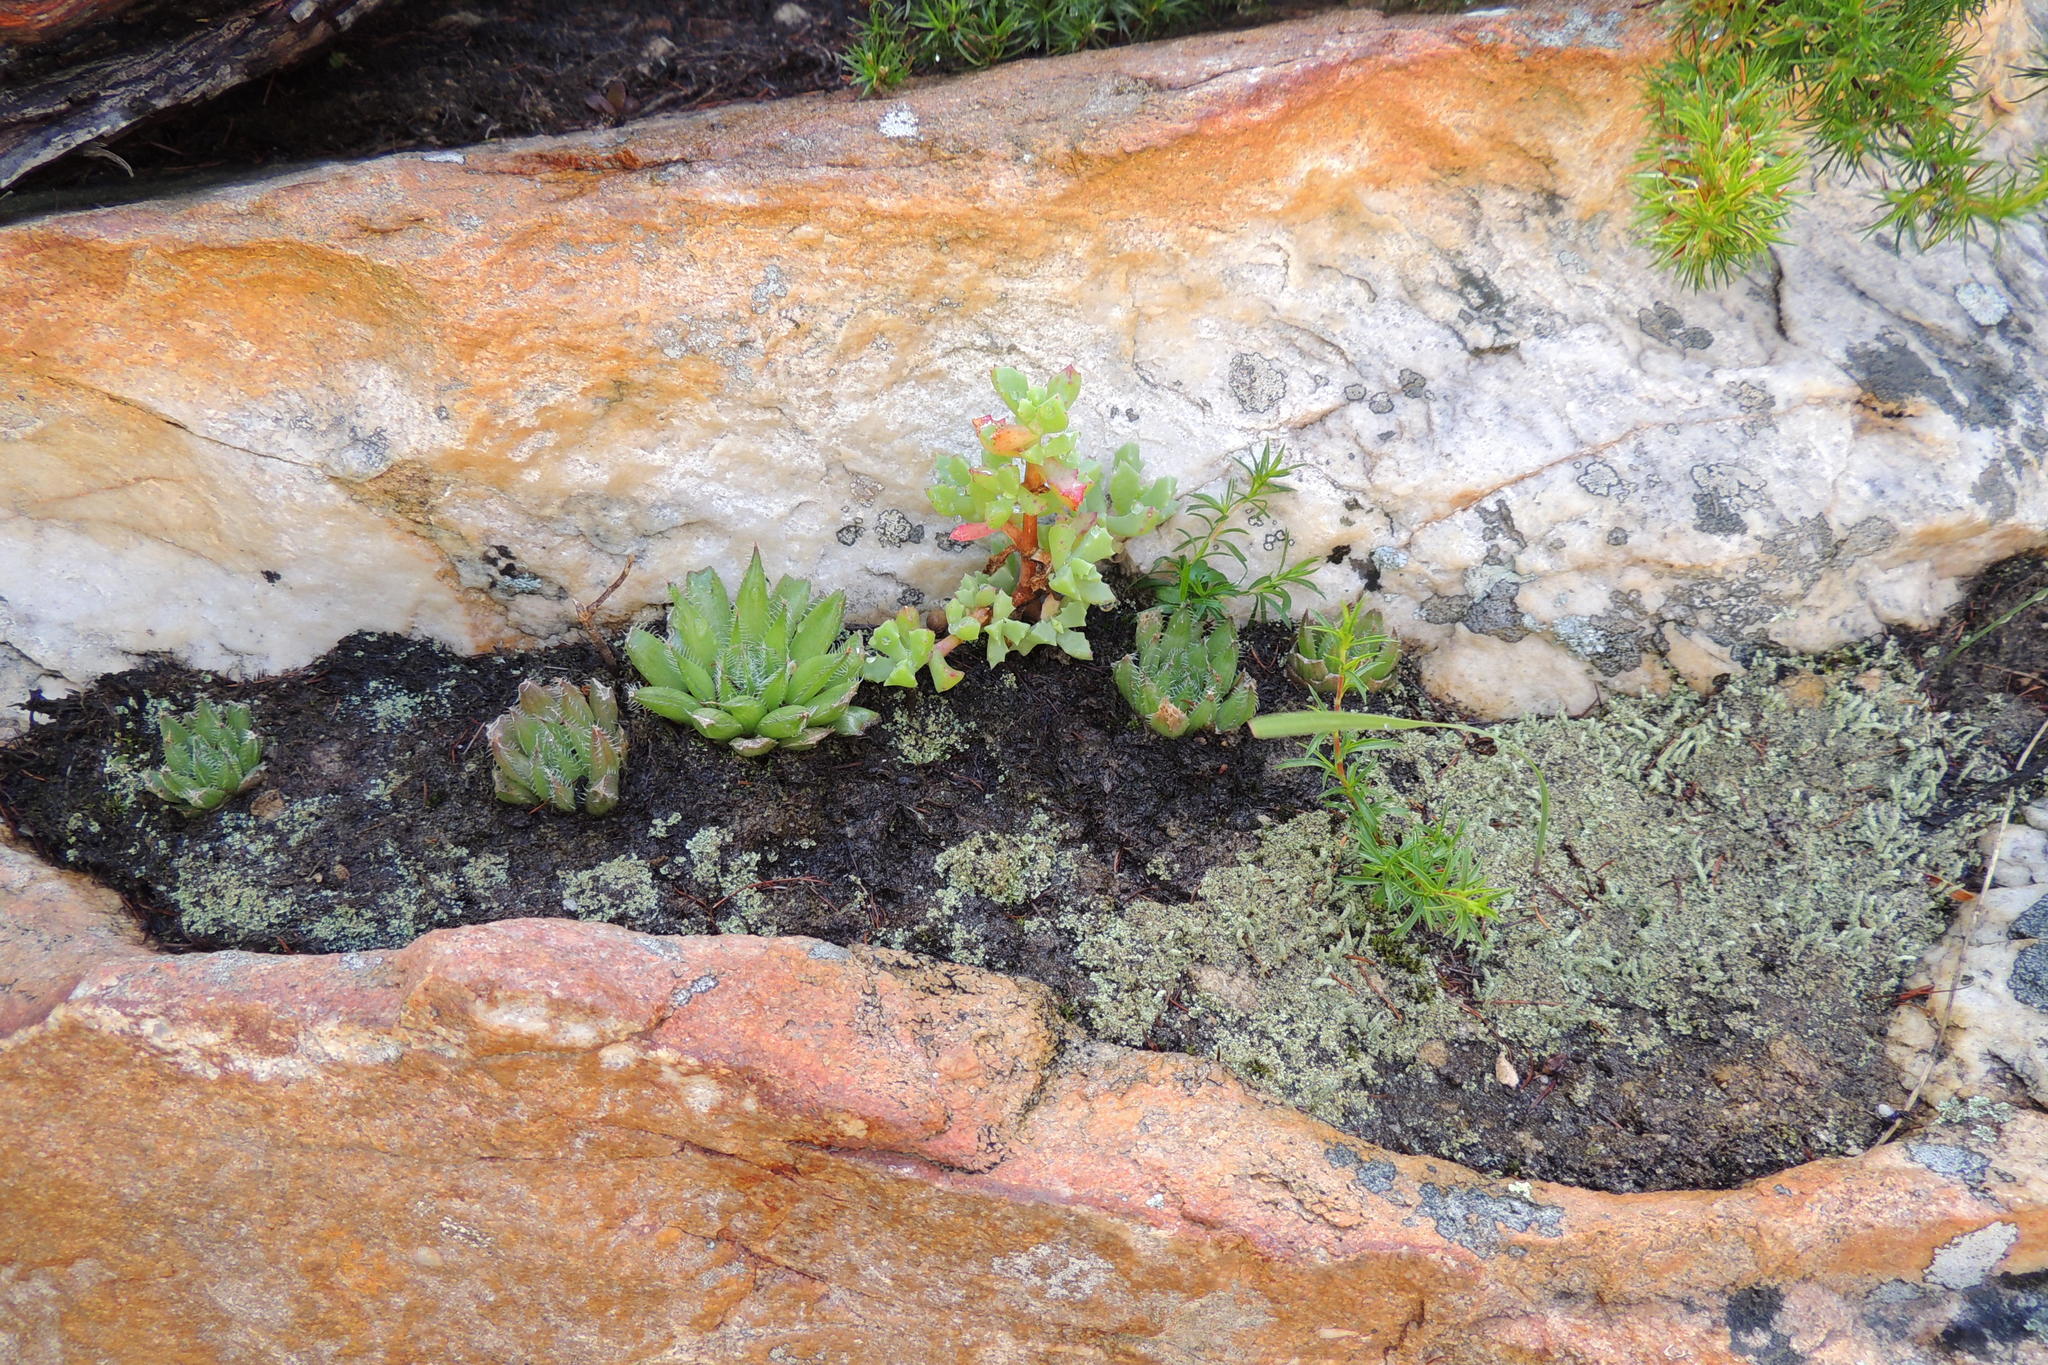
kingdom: Plantae
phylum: Tracheophyta
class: Liliopsida
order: Asparagales
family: Asphodelaceae
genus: Haworthia
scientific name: Haworthia arachnoidea
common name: Cobweb-aloe
